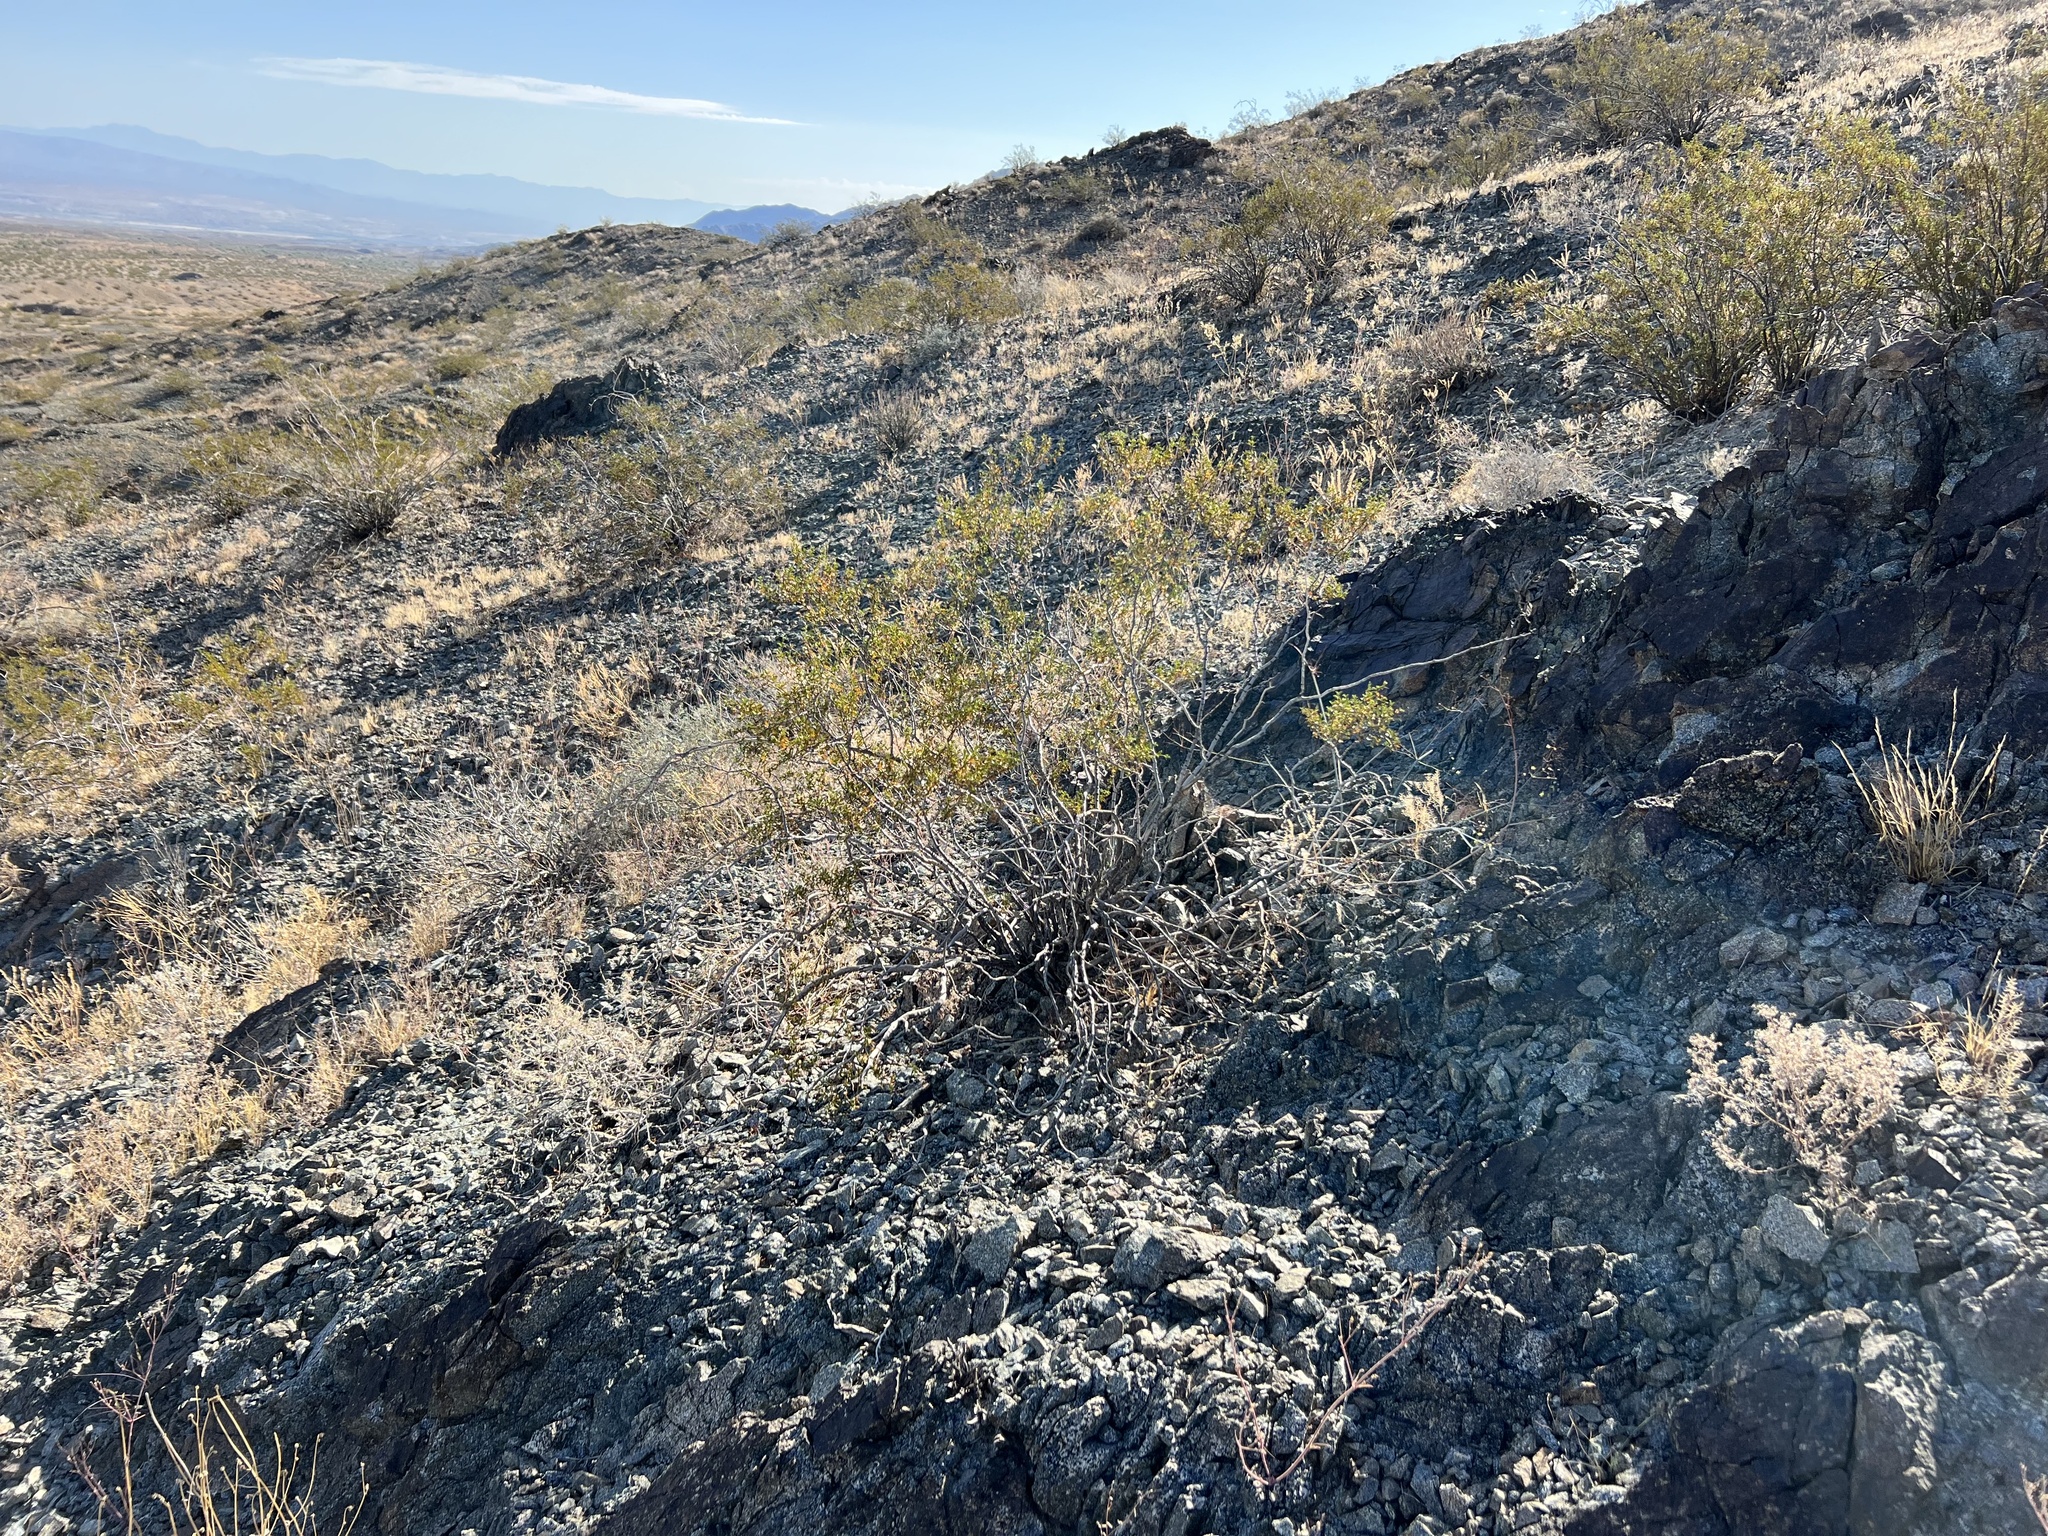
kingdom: Plantae
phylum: Tracheophyta
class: Magnoliopsida
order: Zygophyllales
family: Zygophyllaceae
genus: Larrea
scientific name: Larrea tridentata
